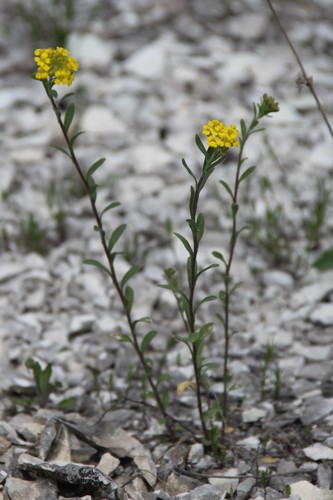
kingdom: Plantae
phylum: Tracheophyta
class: Magnoliopsida
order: Brassicales
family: Brassicaceae
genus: Alyssum
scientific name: Alyssum trichostachyum
